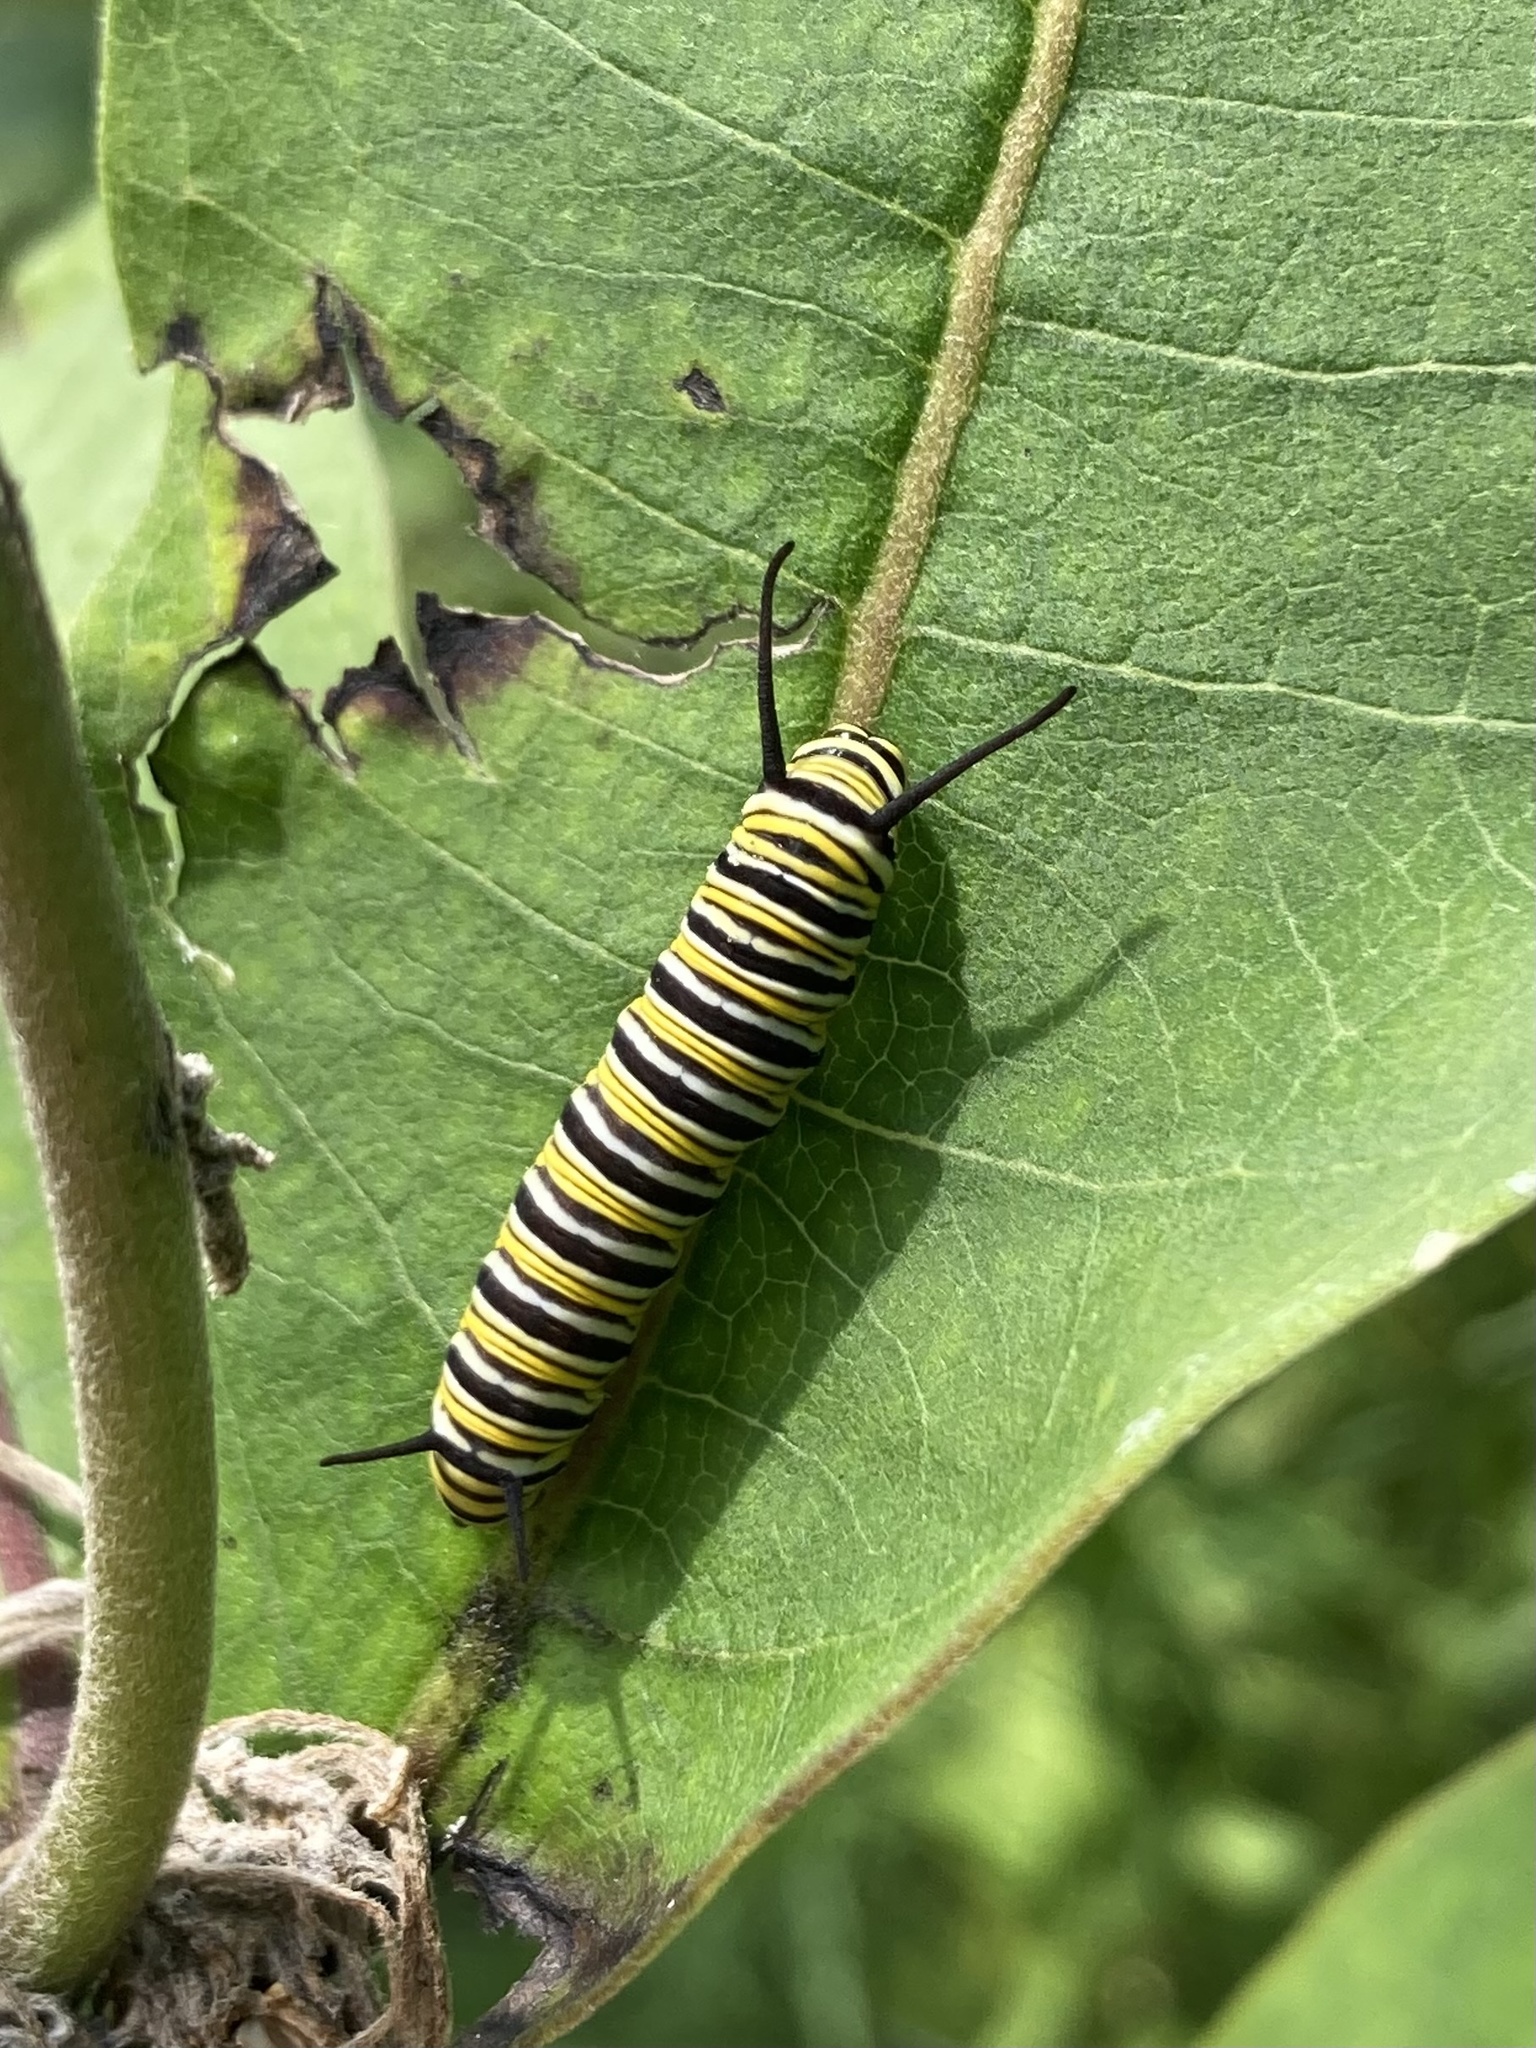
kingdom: Animalia
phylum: Arthropoda
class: Insecta
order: Lepidoptera
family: Nymphalidae
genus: Danaus
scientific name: Danaus plexippus
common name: Monarch
